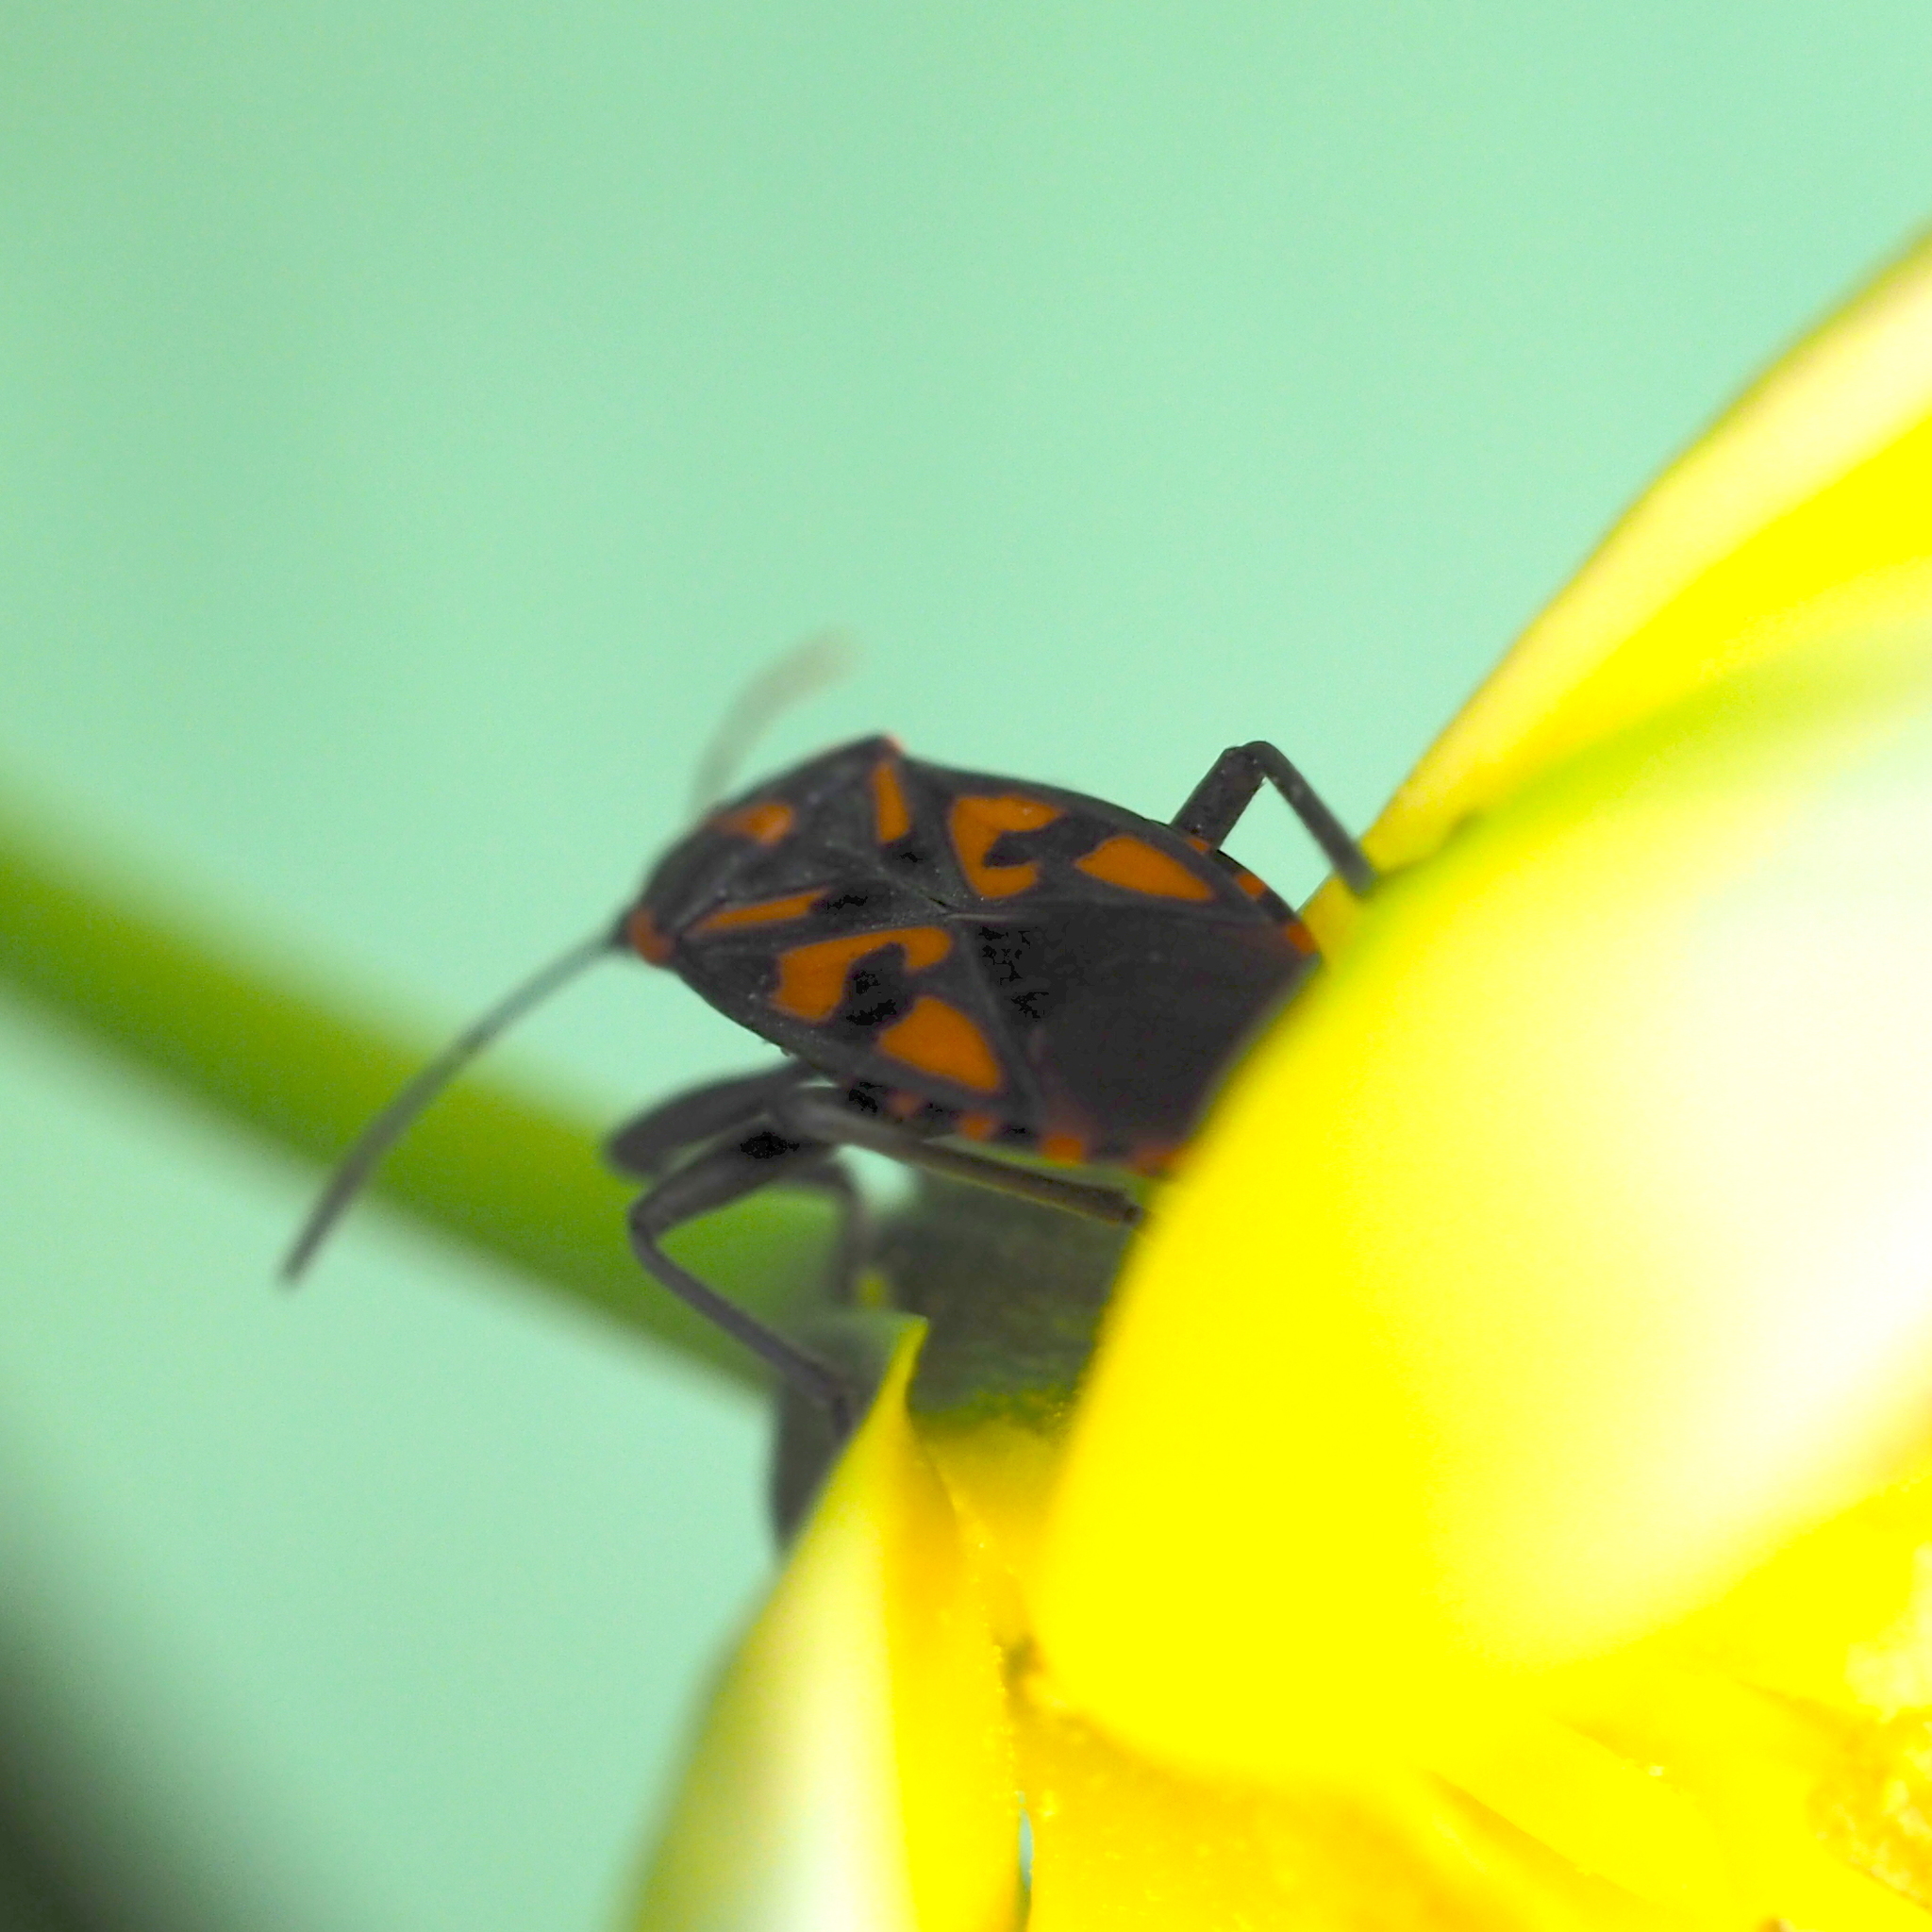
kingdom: Animalia
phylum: Arthropoda
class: Insecta
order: Hemiptera
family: Lygaeidae
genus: Spilostethus
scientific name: Spilostethus saxatilis
